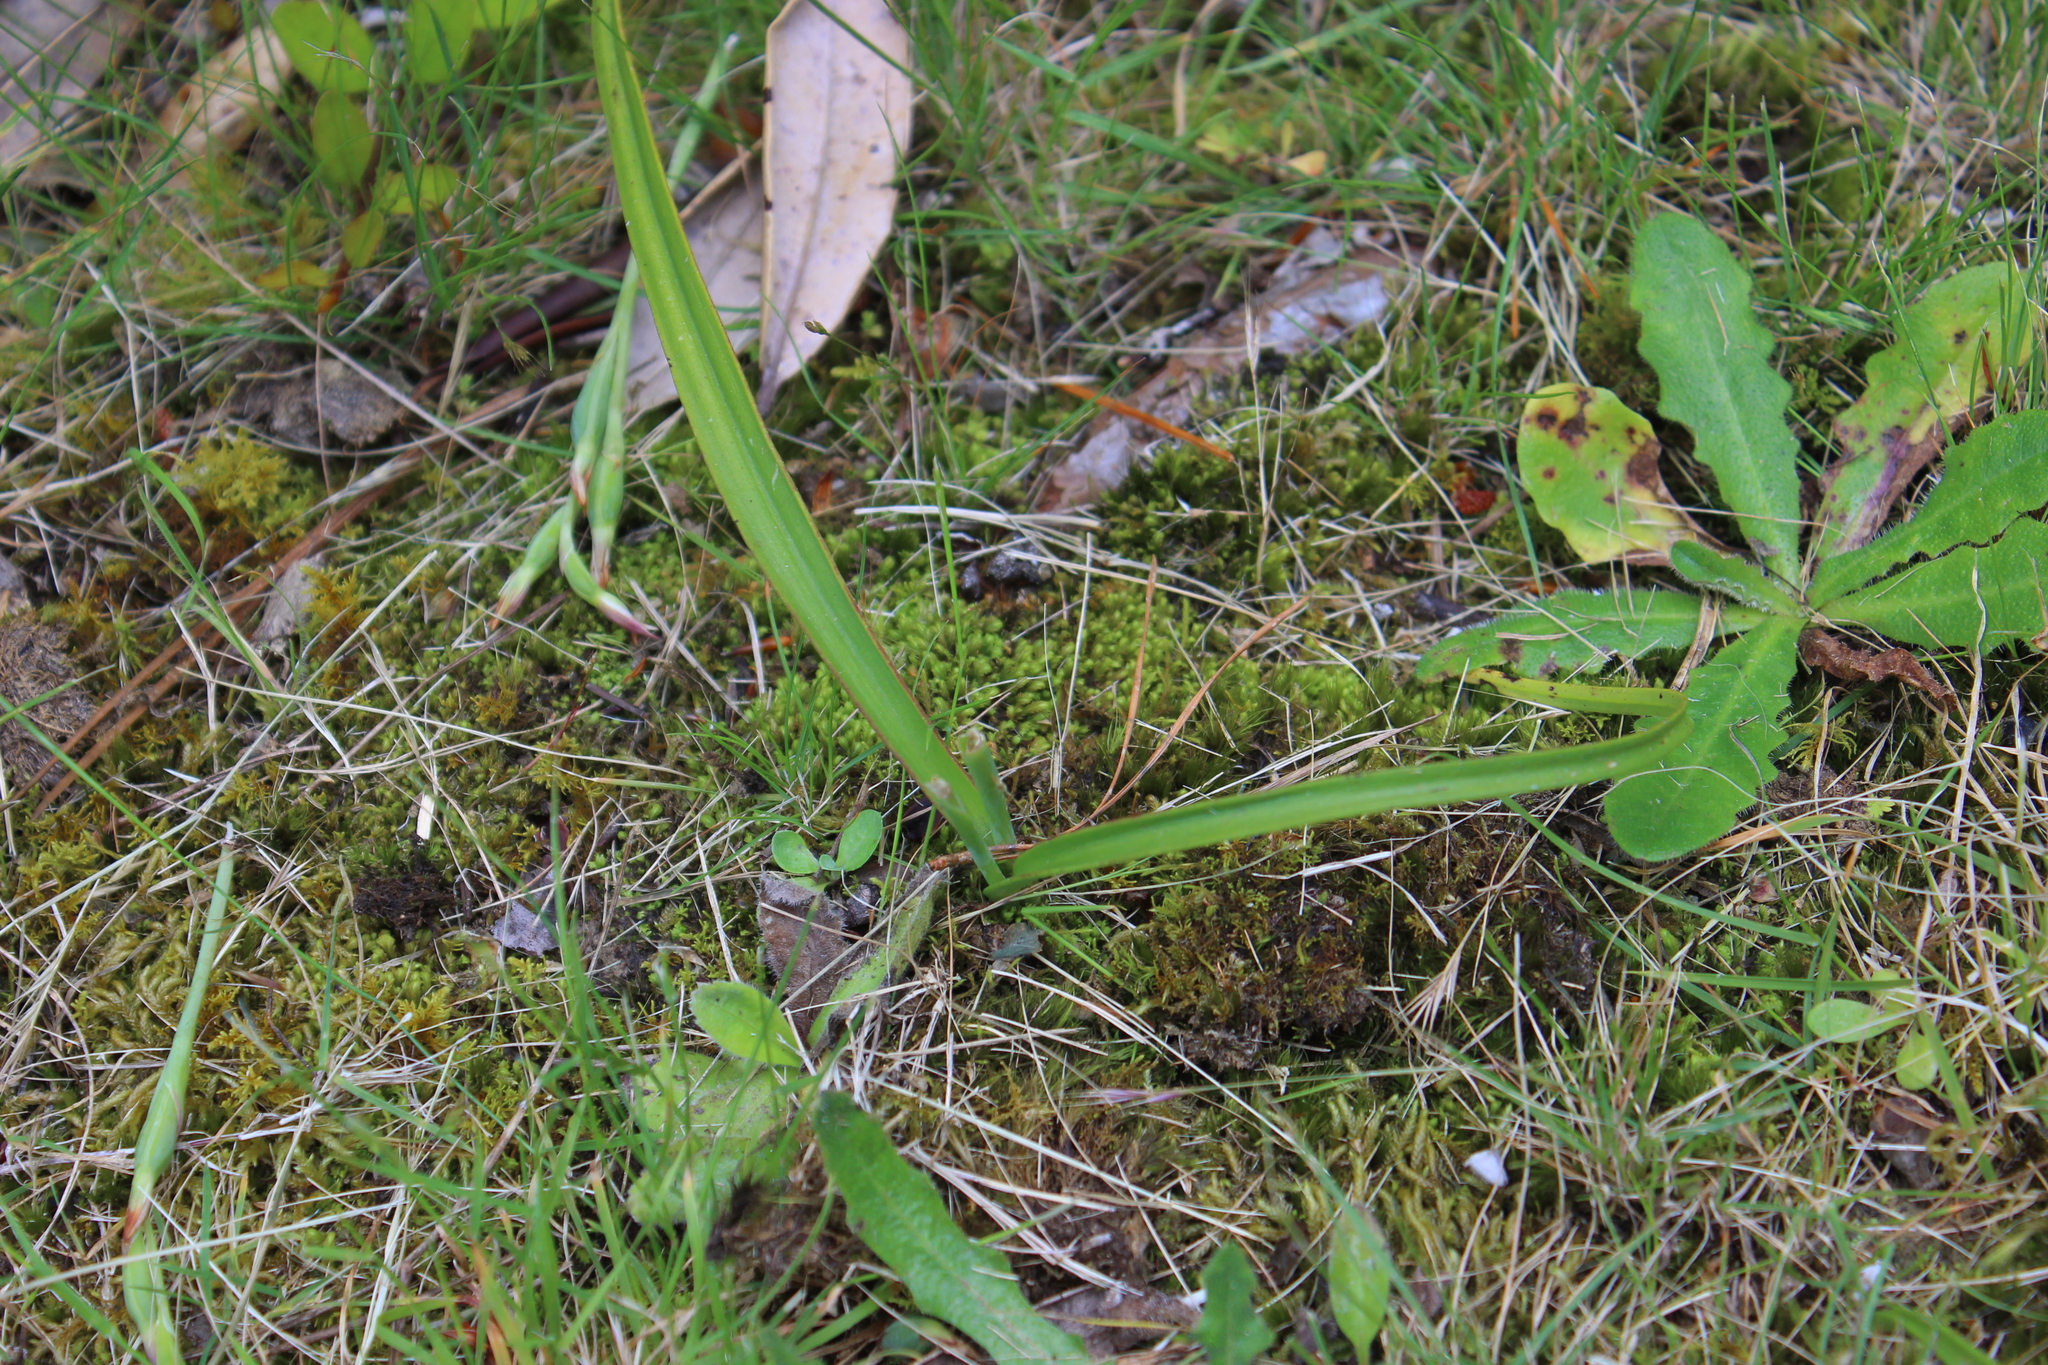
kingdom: Plantae
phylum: Tracheophyta
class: Liliopsida
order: Asparagales
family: Orchidaceae
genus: Thelymitra
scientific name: Thelymitra longifolia
